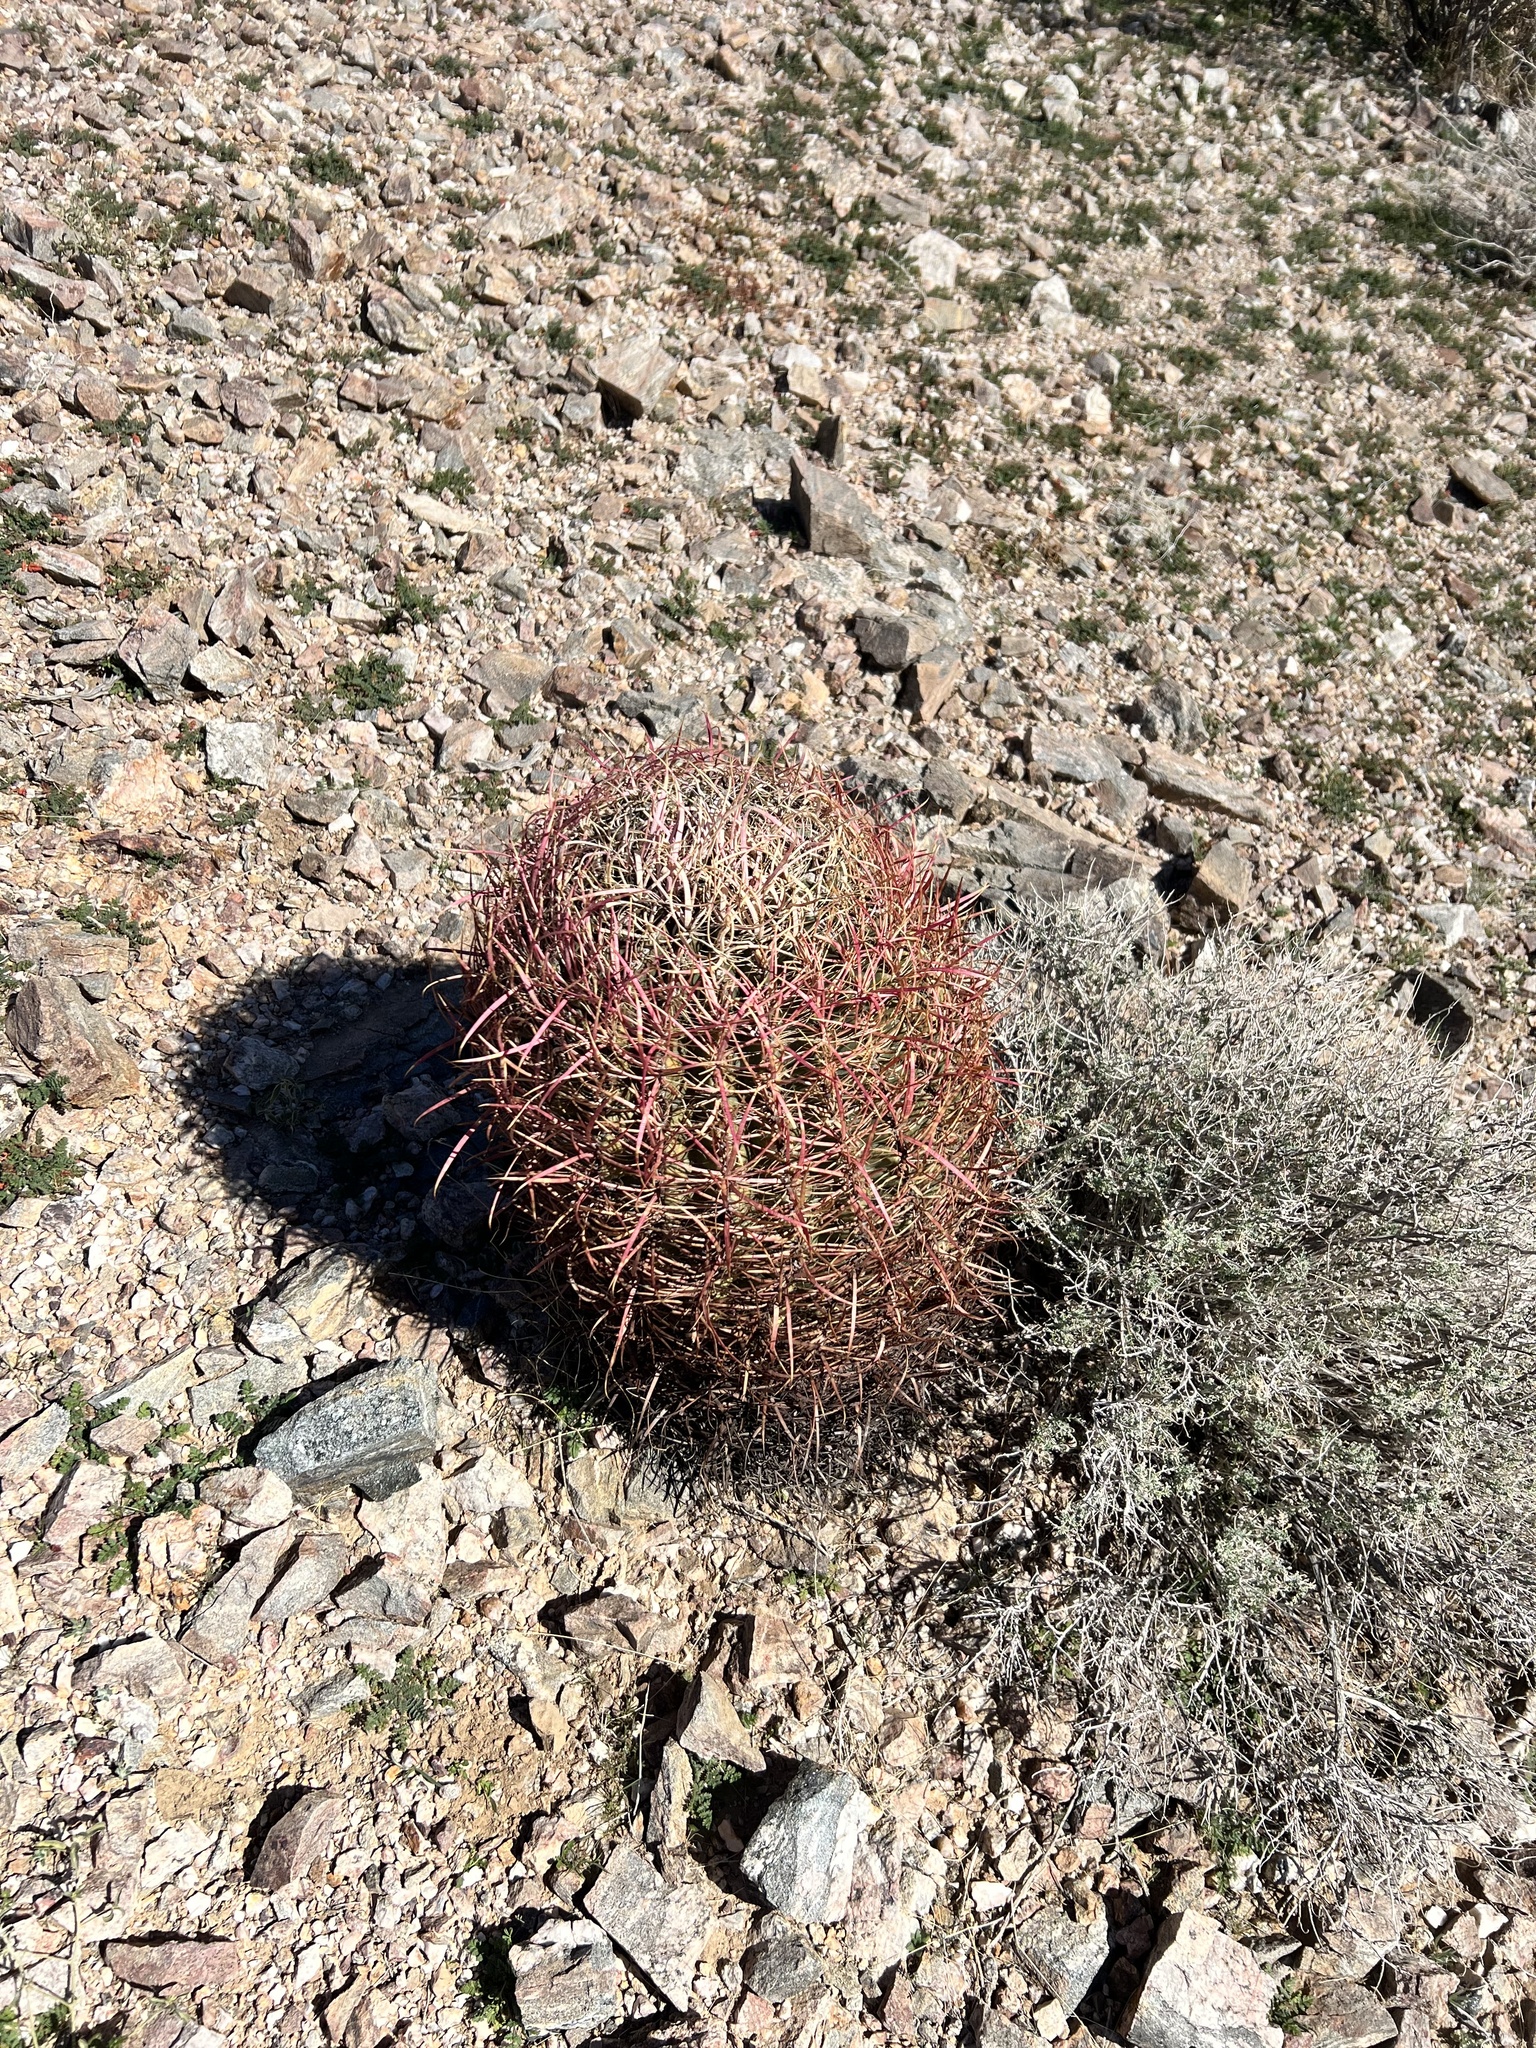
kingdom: Plantae
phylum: Tracheophyta
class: Magnoliopsida
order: Caryophyllales
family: Cactaceae
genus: Ferocactus
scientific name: Ferocactus cylindraceus
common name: California barrel cactus
